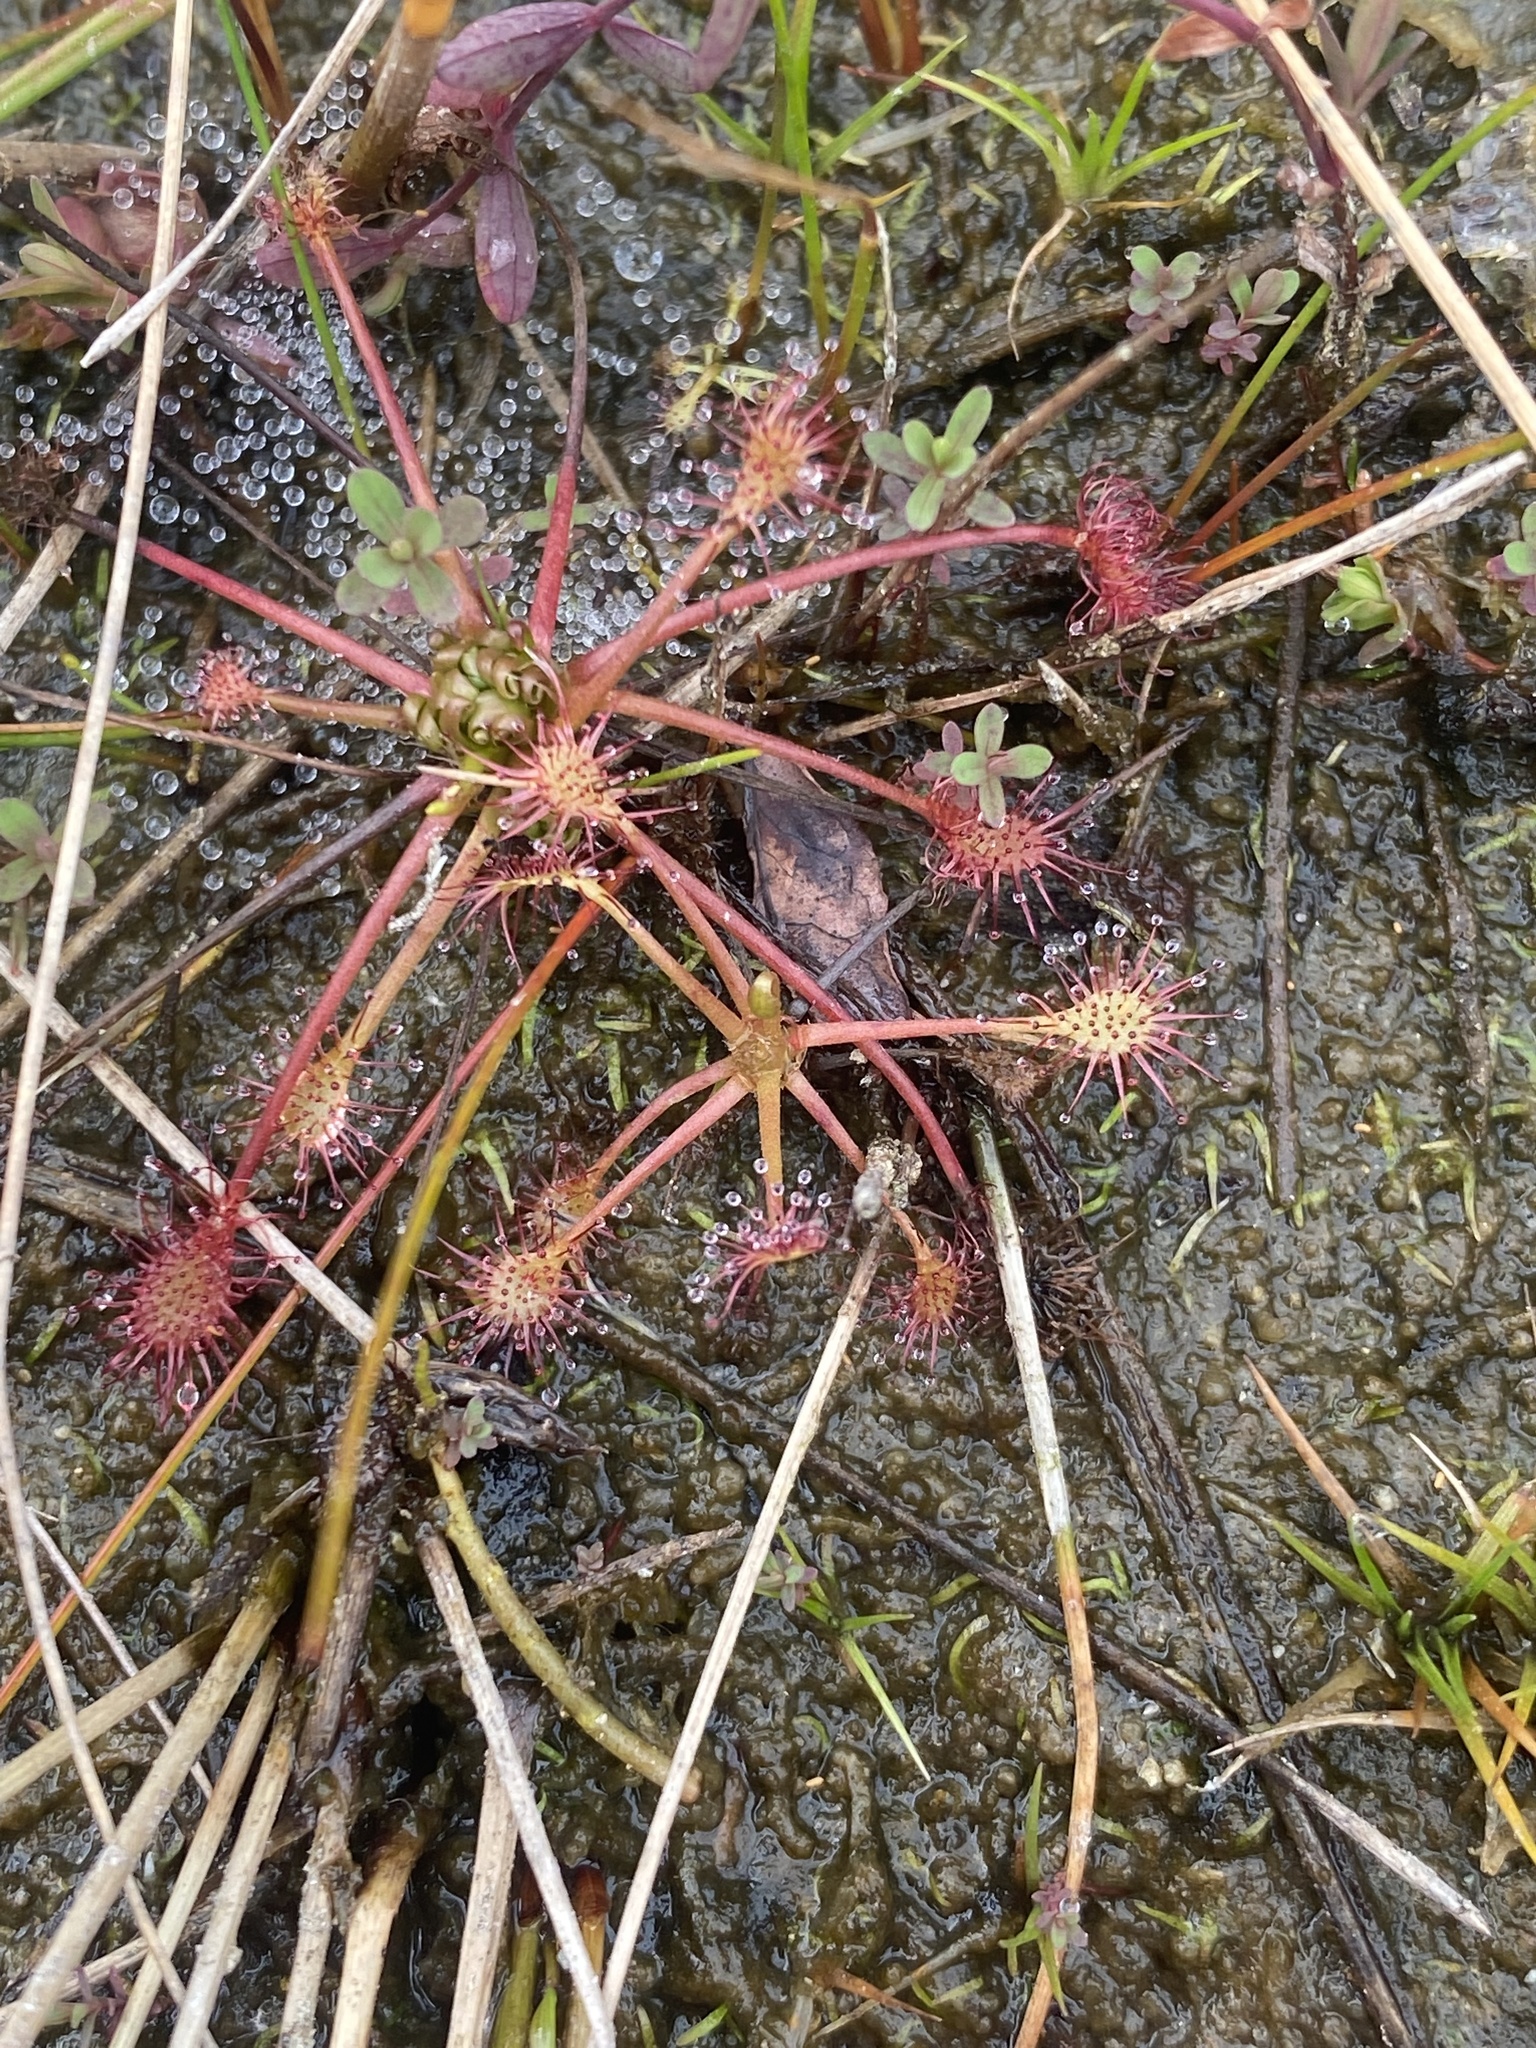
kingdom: Plantae
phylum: Tracheophyta
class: Magnoliopsida
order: Caryophyllales
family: Droseraceae
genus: Drosera
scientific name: Drosera intermedia
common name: Oblong-leaved sundew
